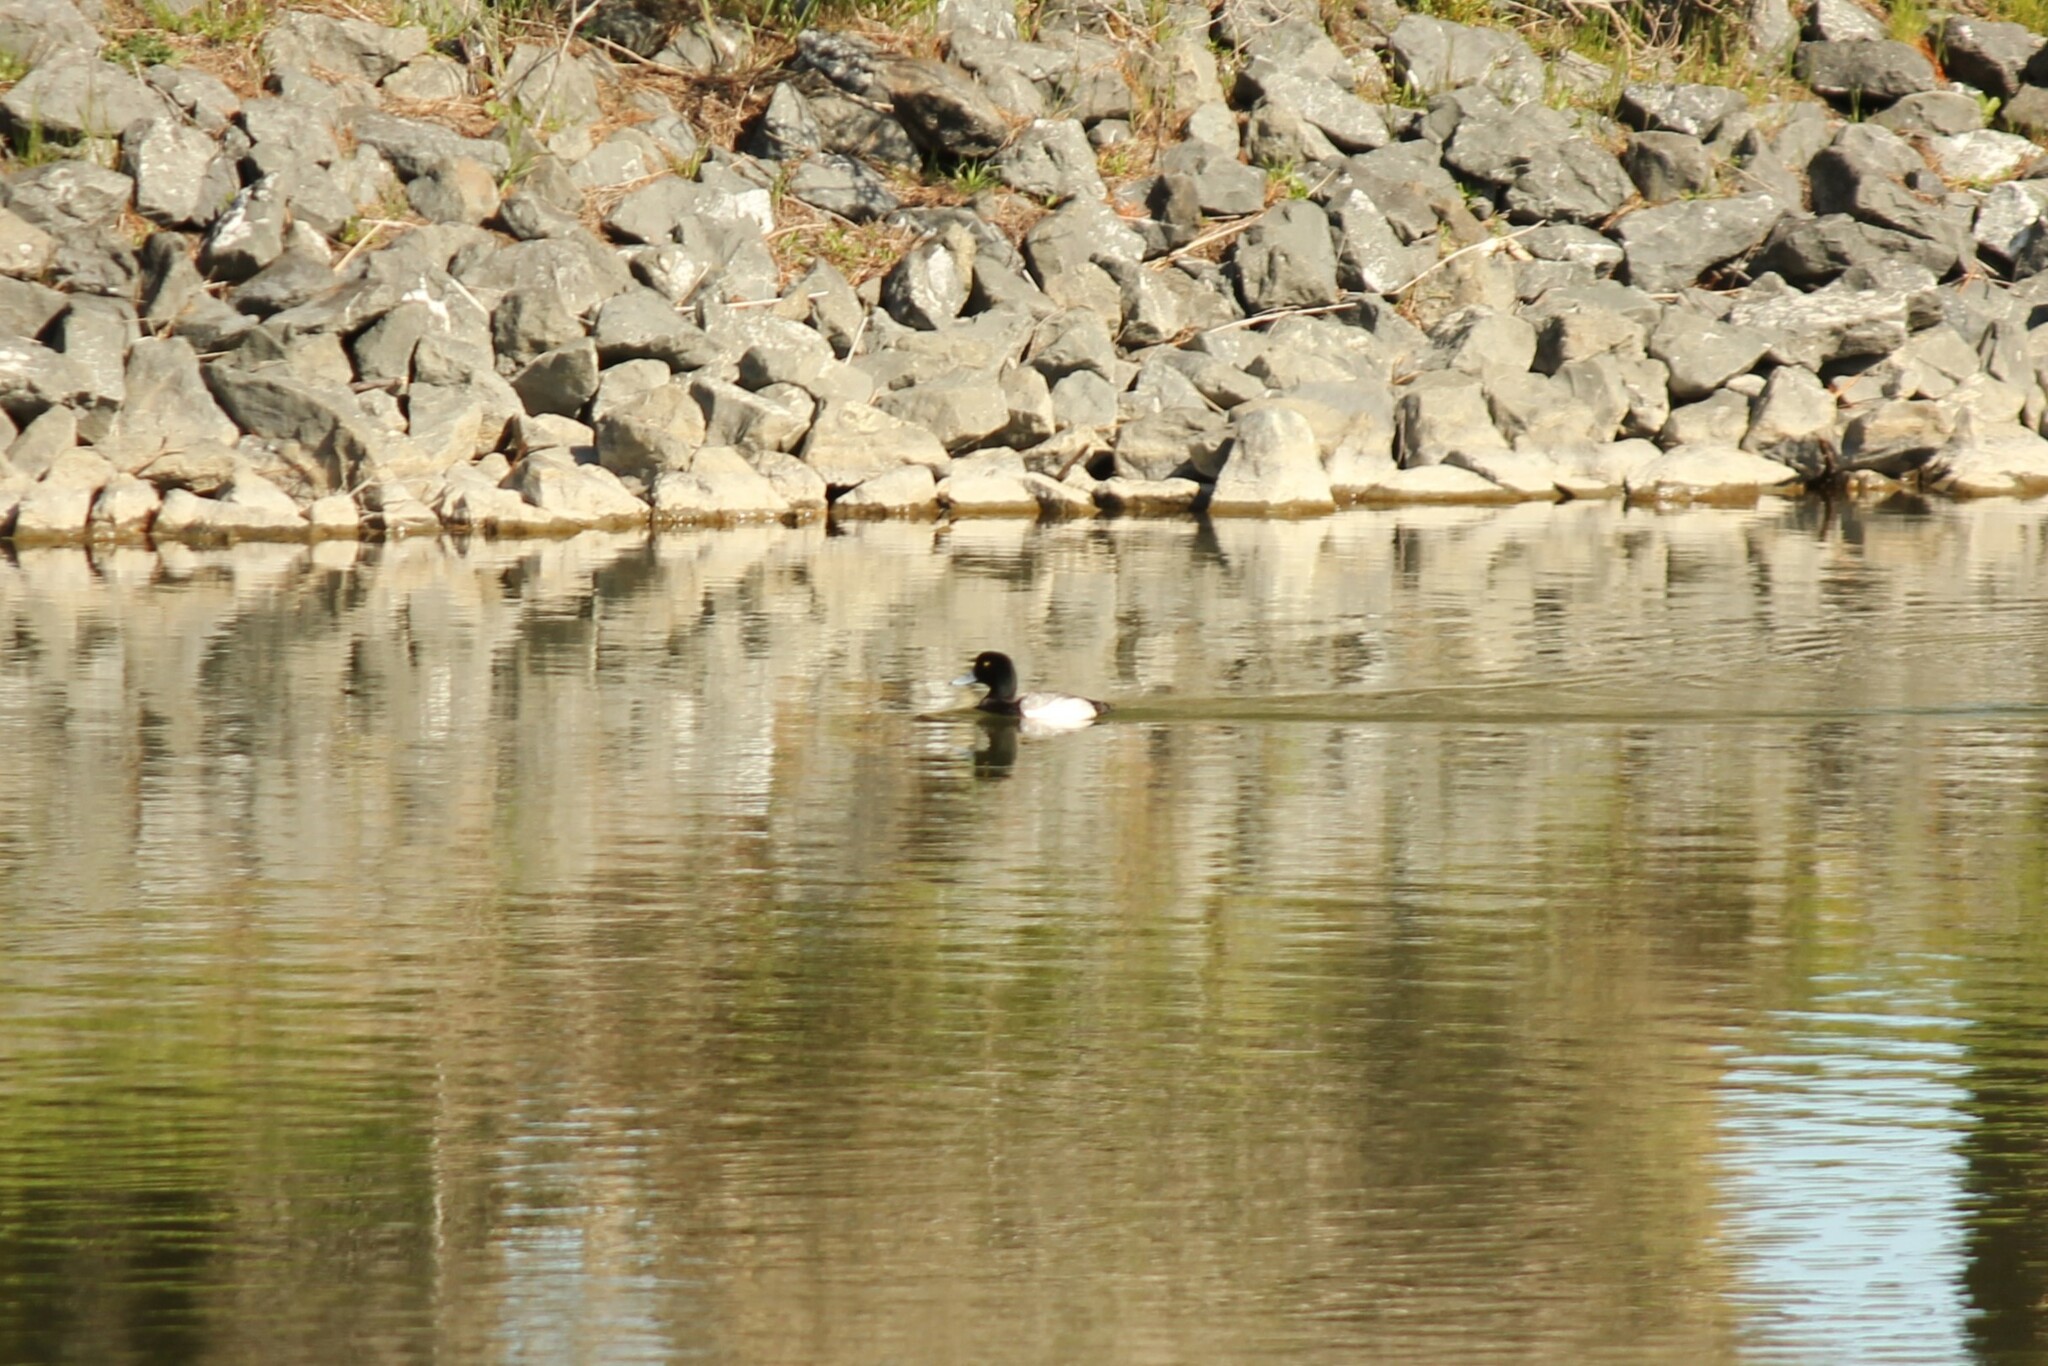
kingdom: Animalia
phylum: Chordata
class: Aves
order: Anseriformes
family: Anatidae
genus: Aythya
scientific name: Aythya marila
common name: Greater scaup
